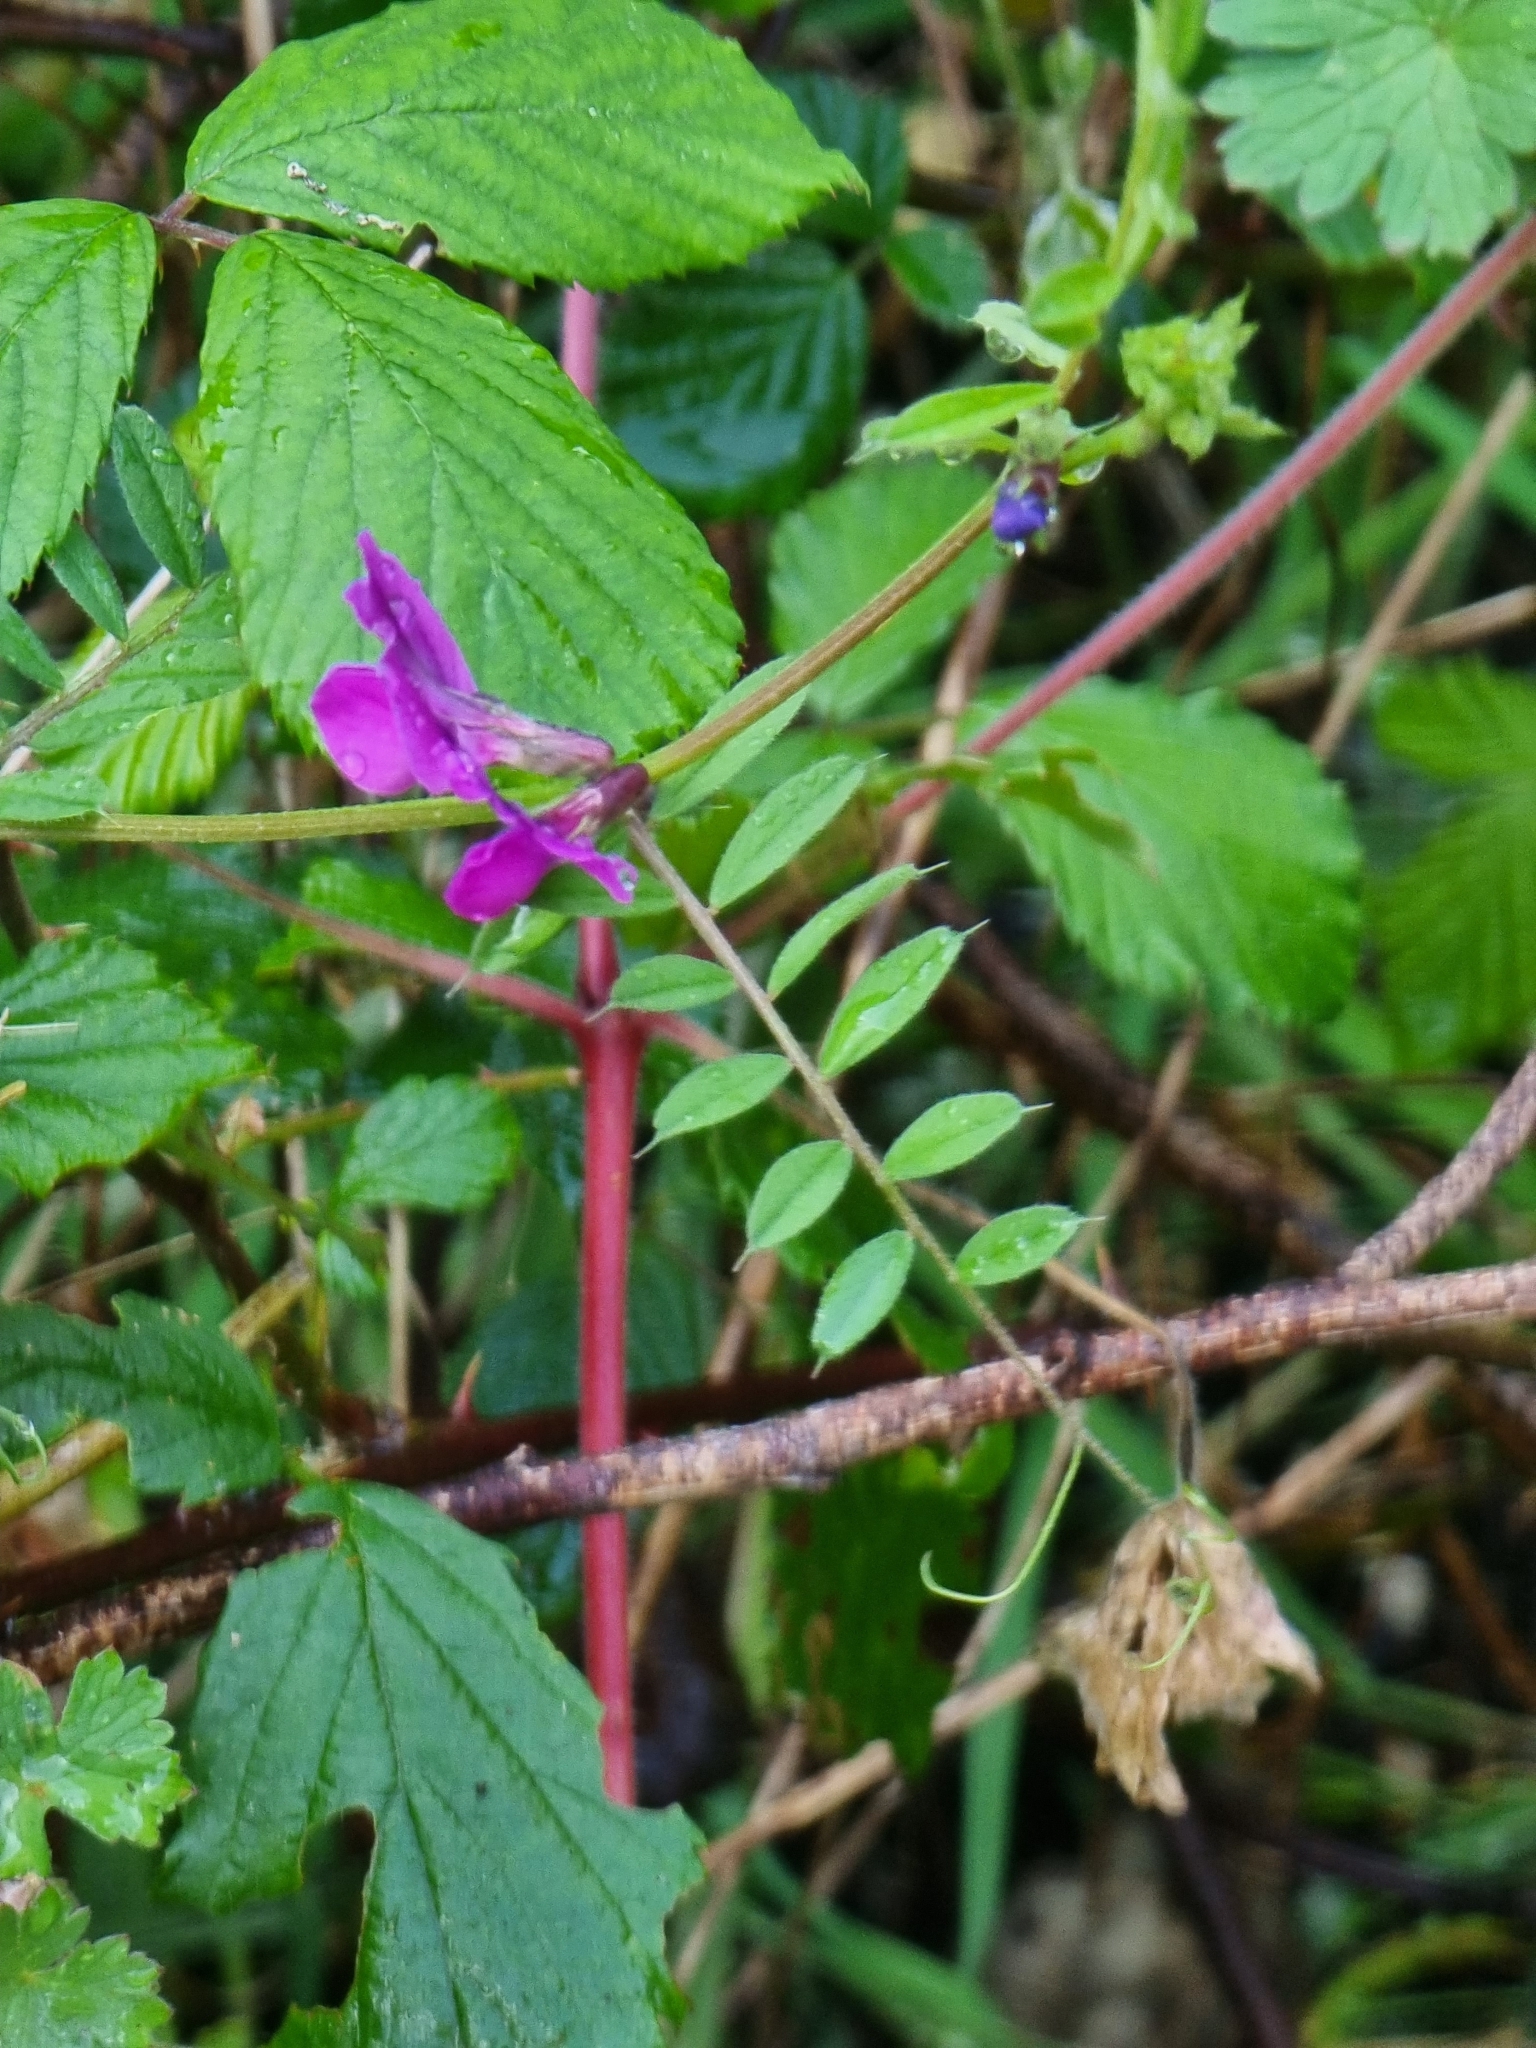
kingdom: Plantae
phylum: Tracheophyta
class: Magnoliopsida
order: Fabales
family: Fabaceae
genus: Vicia
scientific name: Vicia sativa
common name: Garden vetch
